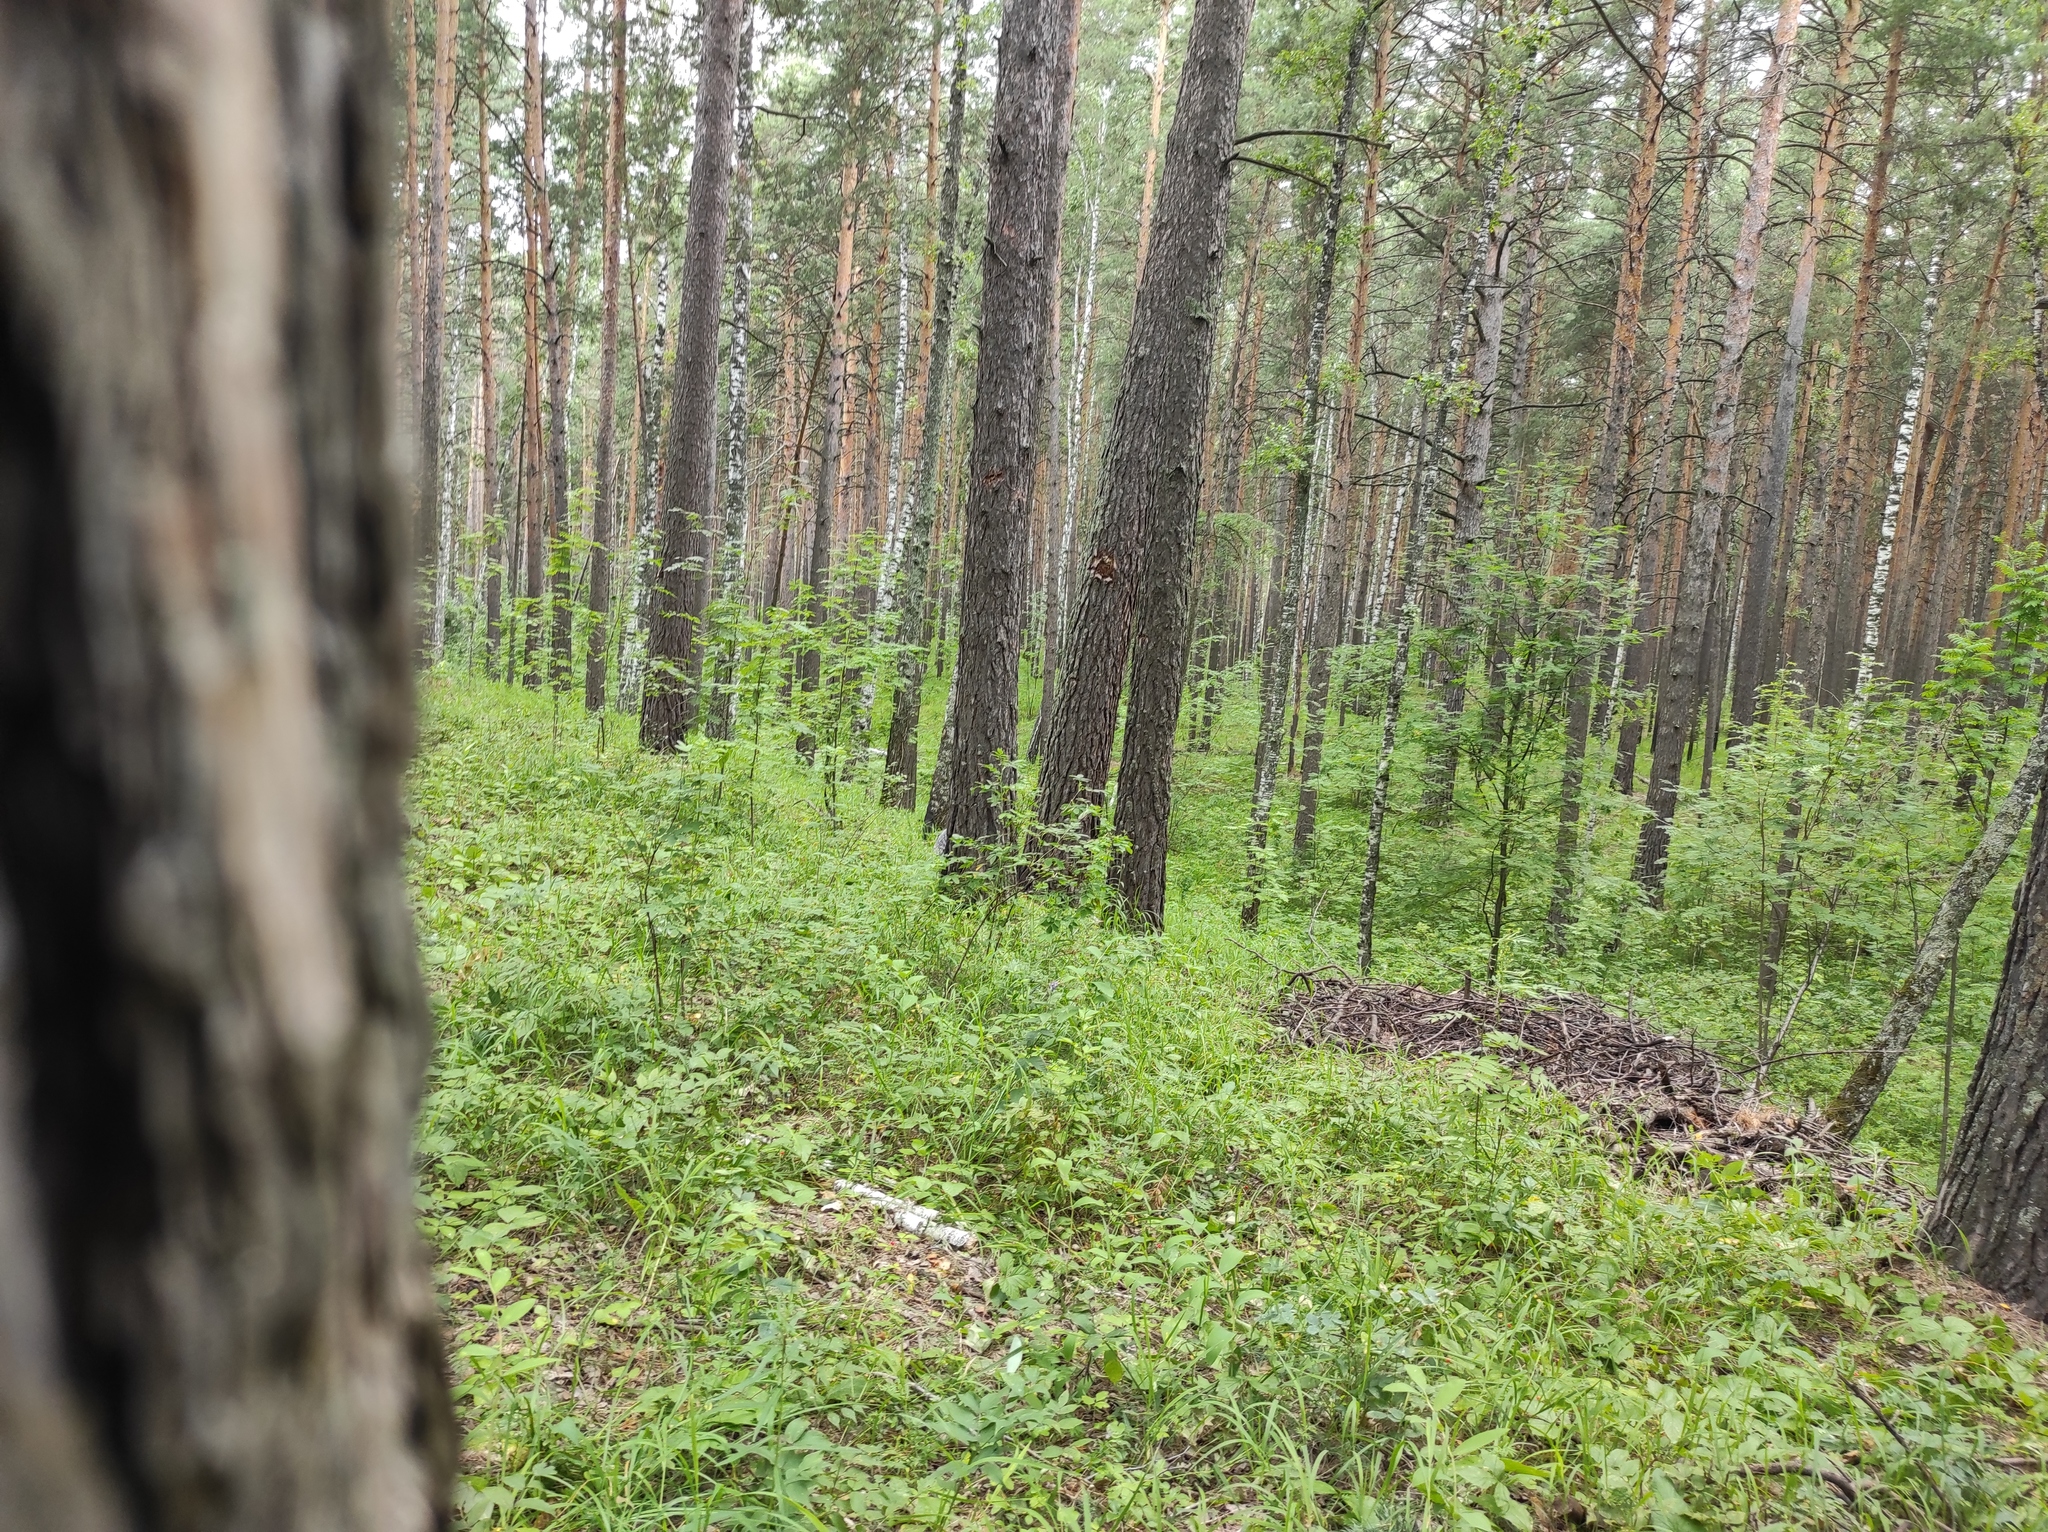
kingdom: Plantae
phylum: Tracheophyta
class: Magnoliopsida
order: Fagales
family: Betulaceae
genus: Betula
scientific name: Betula pendula
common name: Silver birch
